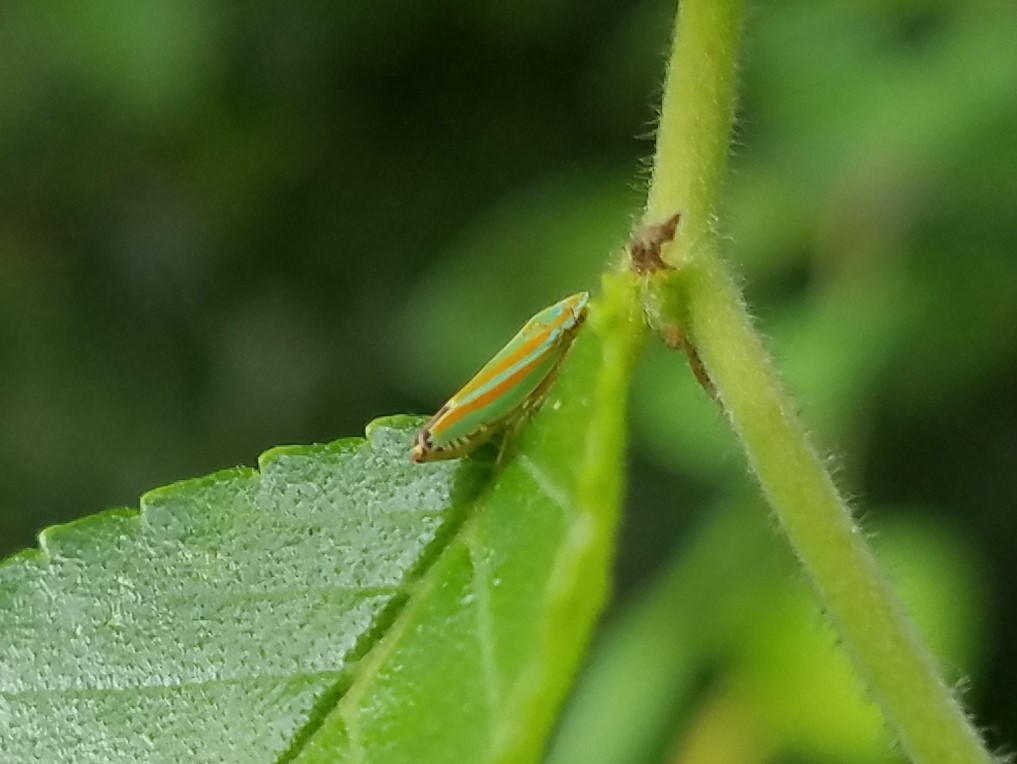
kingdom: Animalia
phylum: Arthropoda
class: Insecta
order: Hemiptera
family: Cicadellidae
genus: Graphocephala
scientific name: Graphocephala versuta
